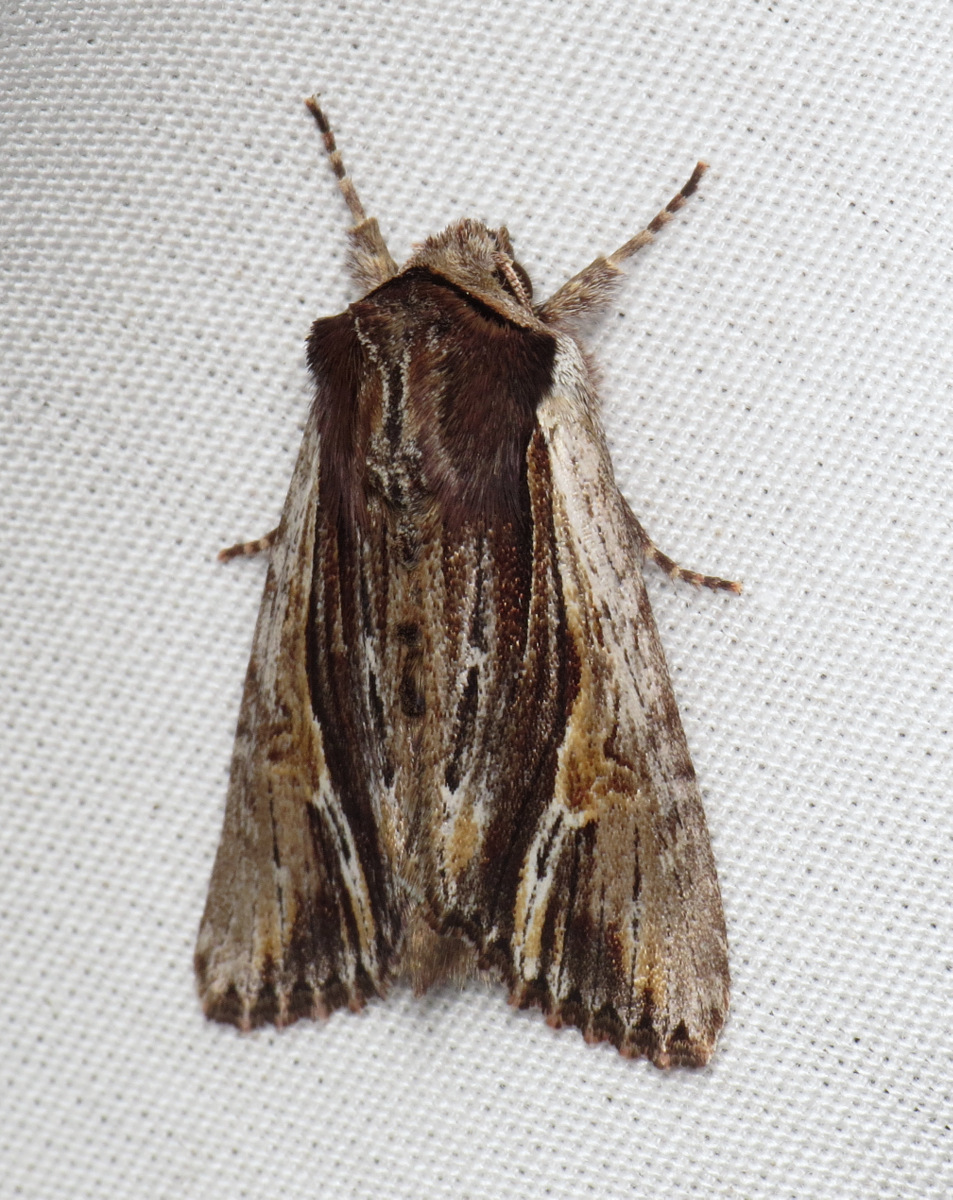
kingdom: Animalia
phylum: Arthropoda
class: Insecta
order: Lepidoptera
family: Noctuidae
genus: Achatia
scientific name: Achatia evicta
